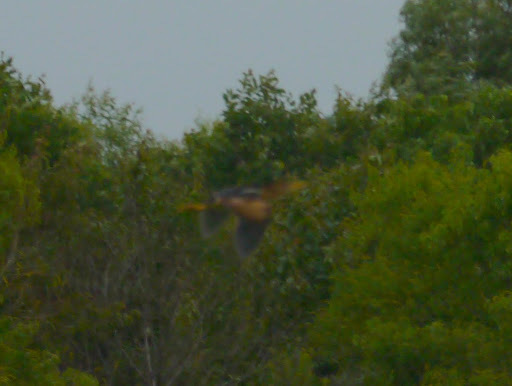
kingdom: Animalia
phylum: Chordata
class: Aves
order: Pelecaniformes
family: Ardeidae
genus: Ixobrychus
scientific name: Ixobrychus exilis
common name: Least bittern
